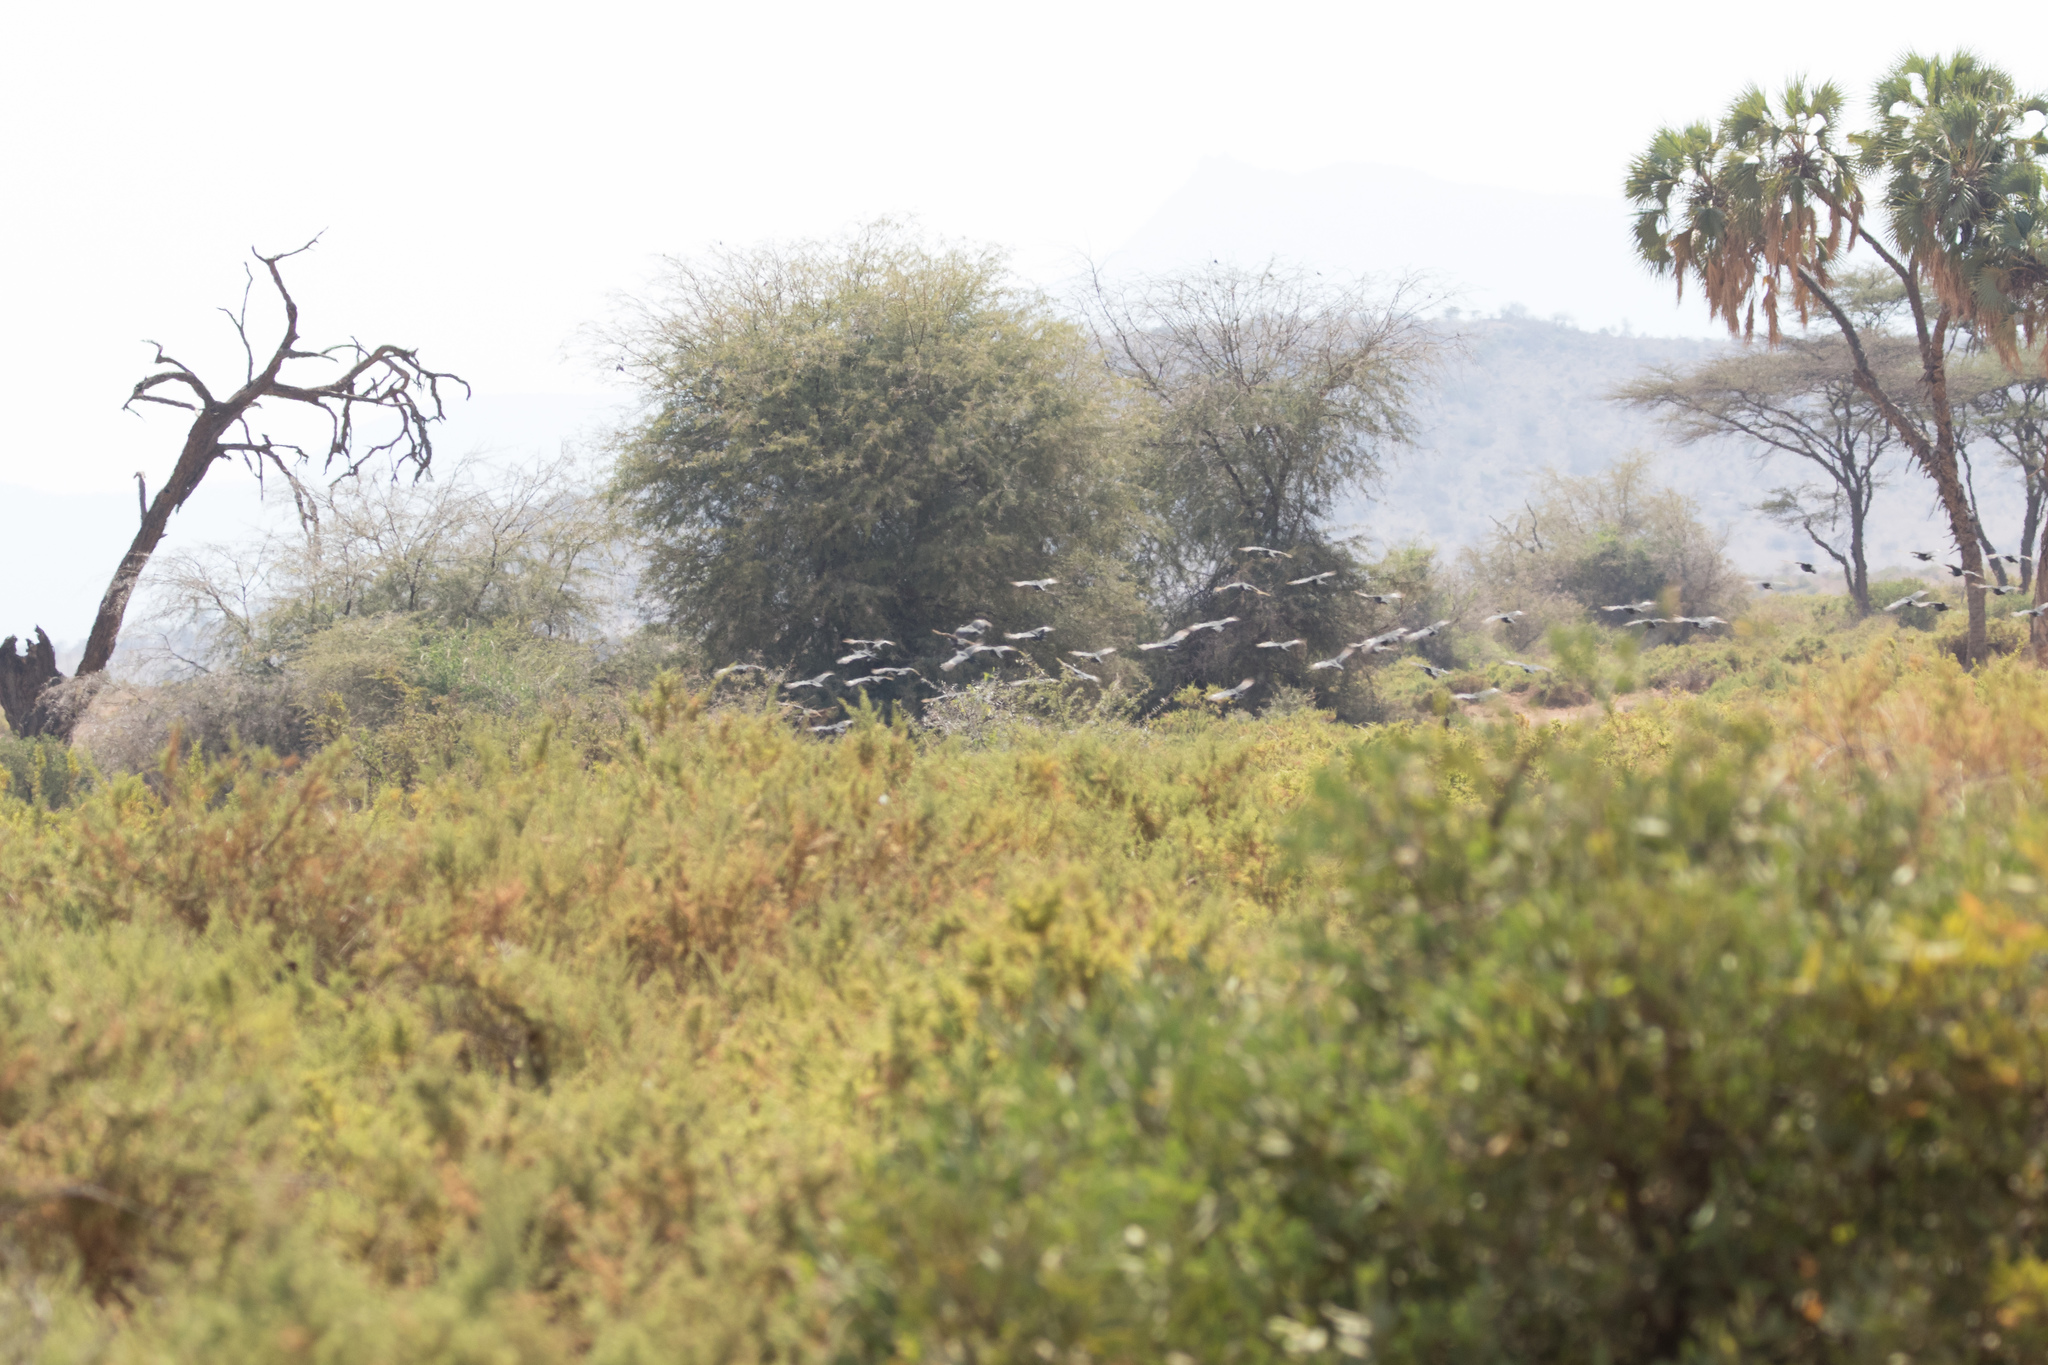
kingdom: Animalia
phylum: Chordata
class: Aves
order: Galliformes
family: Numididae
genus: Acryllium
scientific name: Acryllium vulturinum
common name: Vulturine guineafowl
